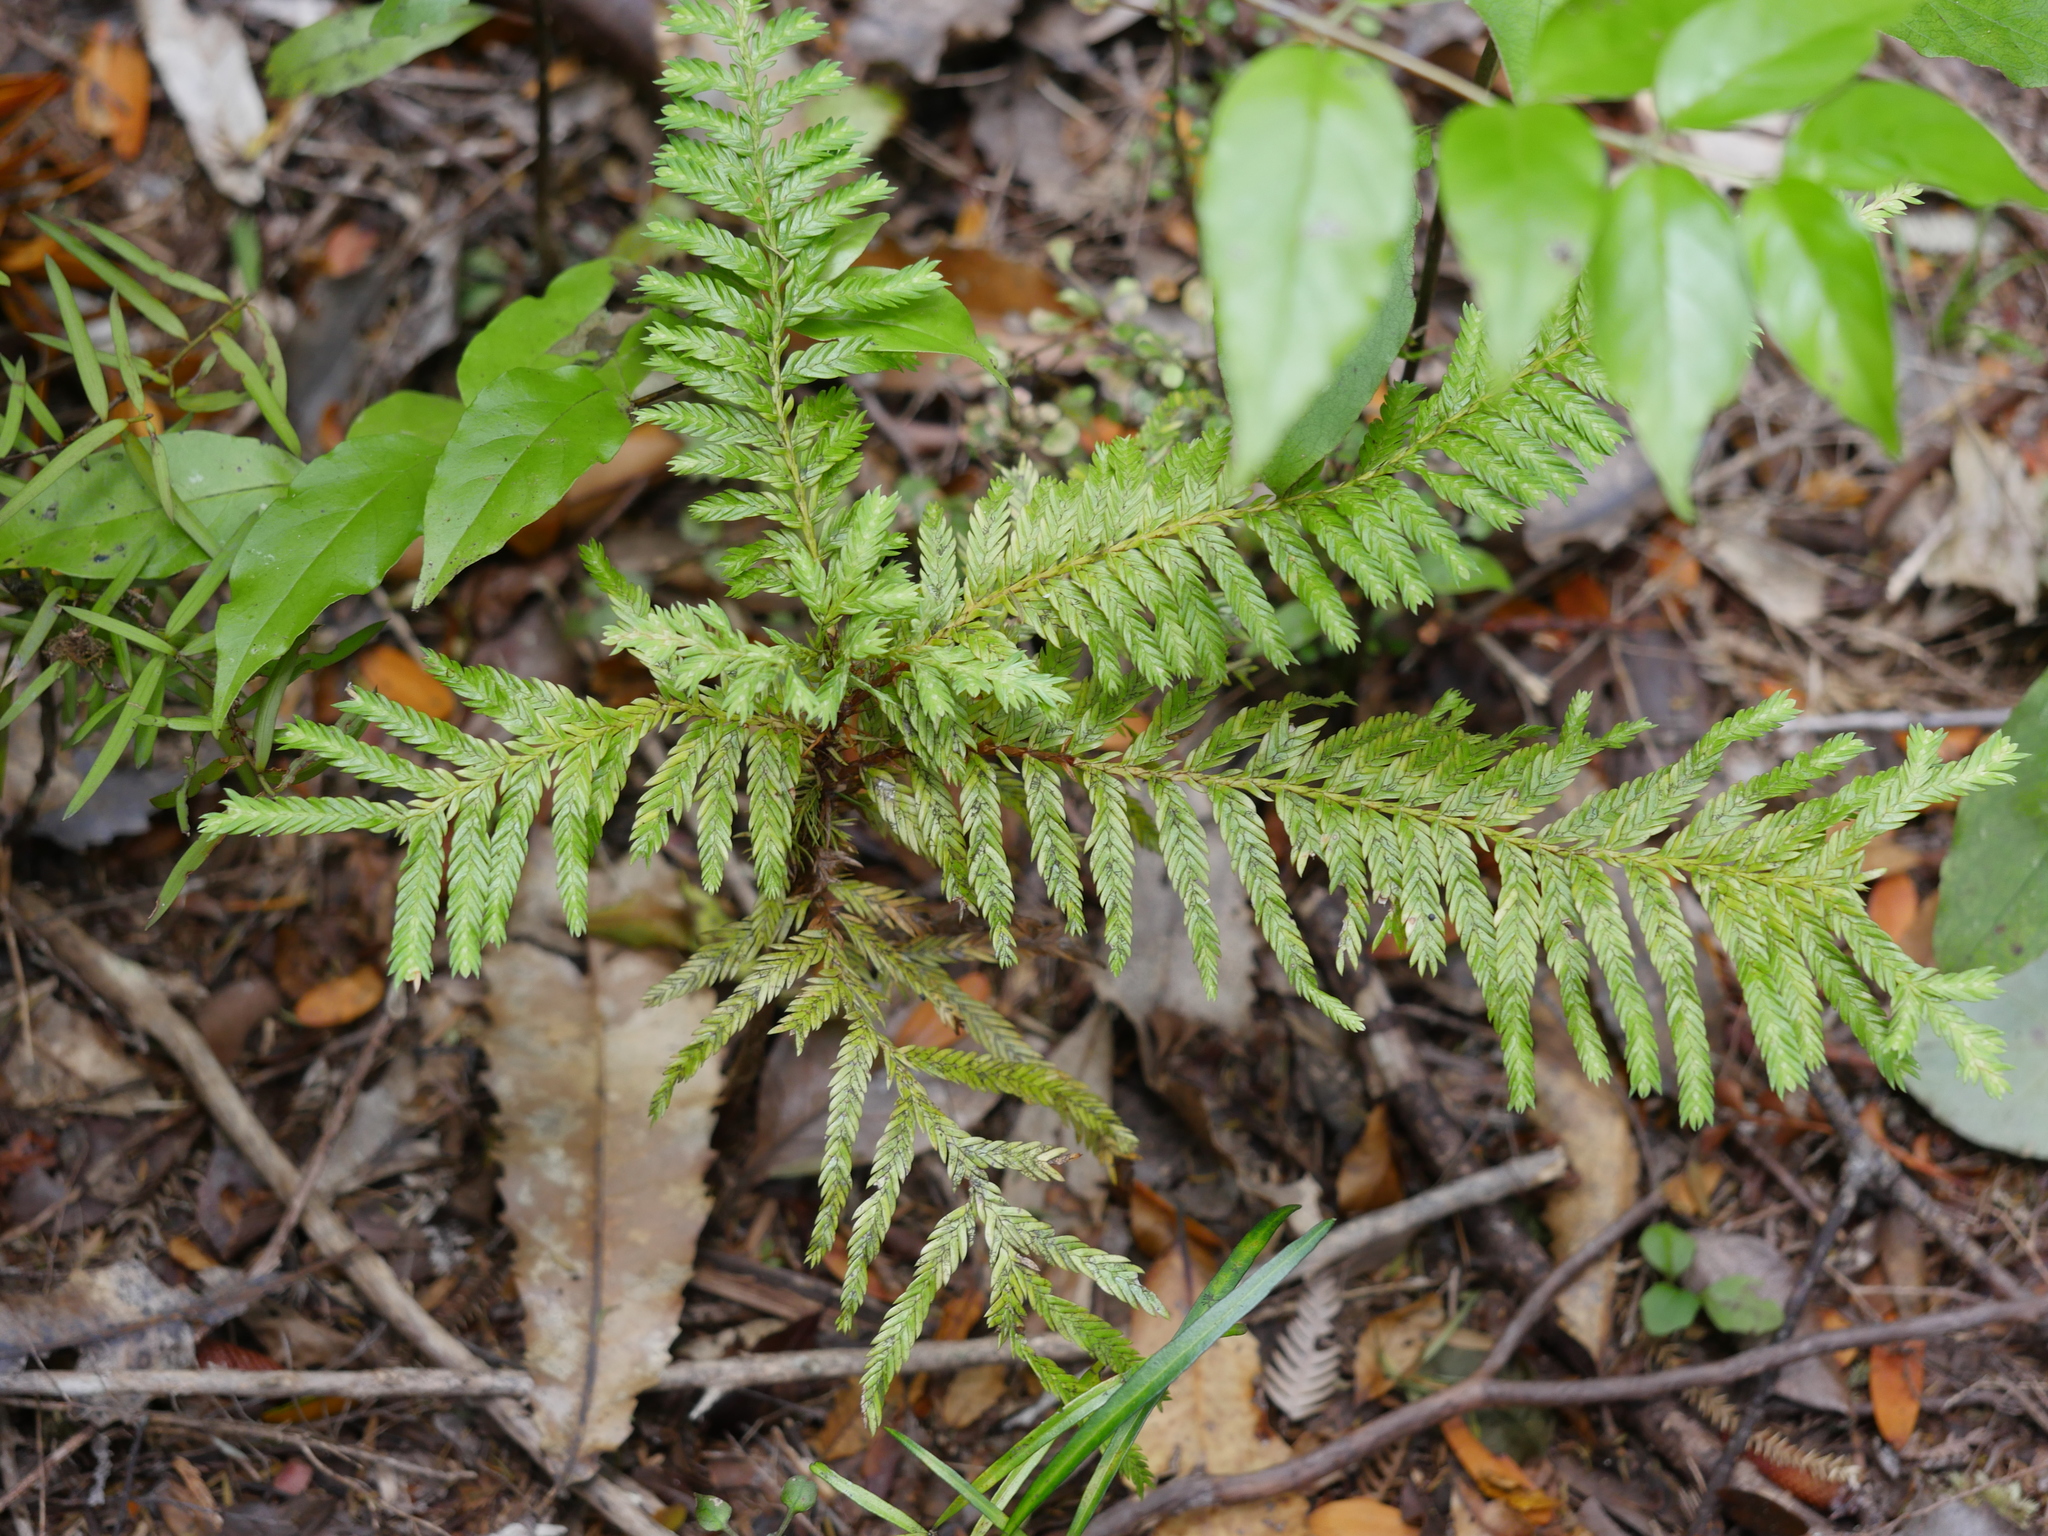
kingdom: Plantae
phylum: Tracheophyta
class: Pinopsida
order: Pinales
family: Cupressaceae
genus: Libocedrus
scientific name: Libocedrus plumosa
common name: New zealand cedar
